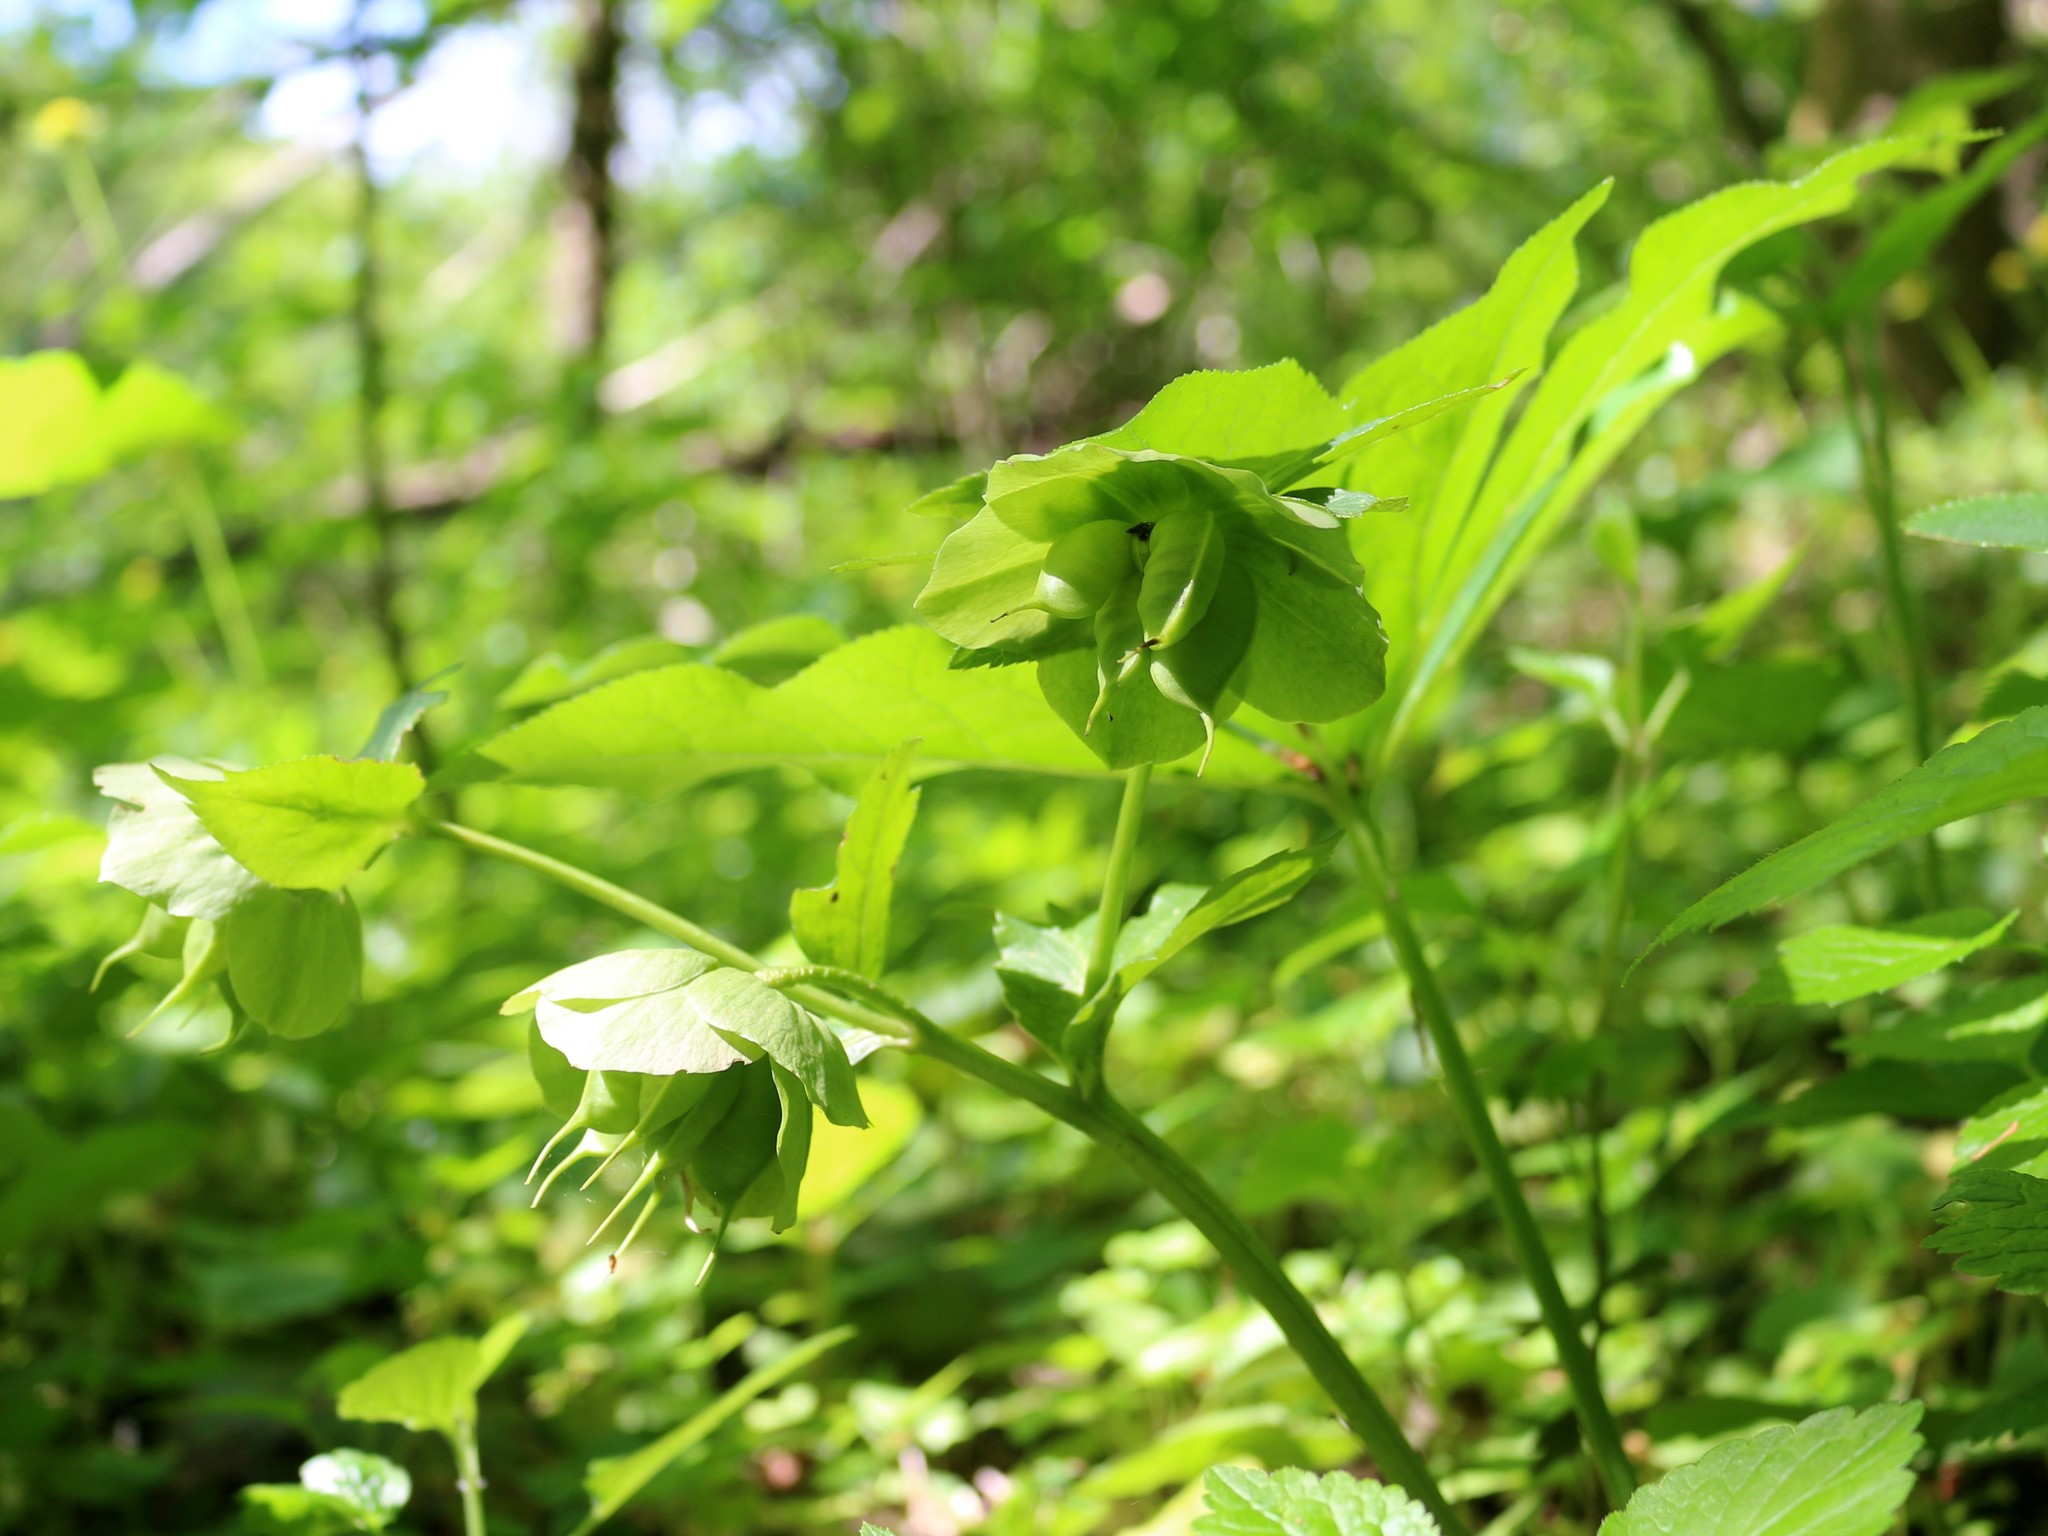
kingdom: Plantae
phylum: Tracheophyta
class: Magnoliopsida
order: Ranunculales
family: Ranunculaceae
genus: Helleborus
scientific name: Helleborus orientalis
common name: Lenten-rose
